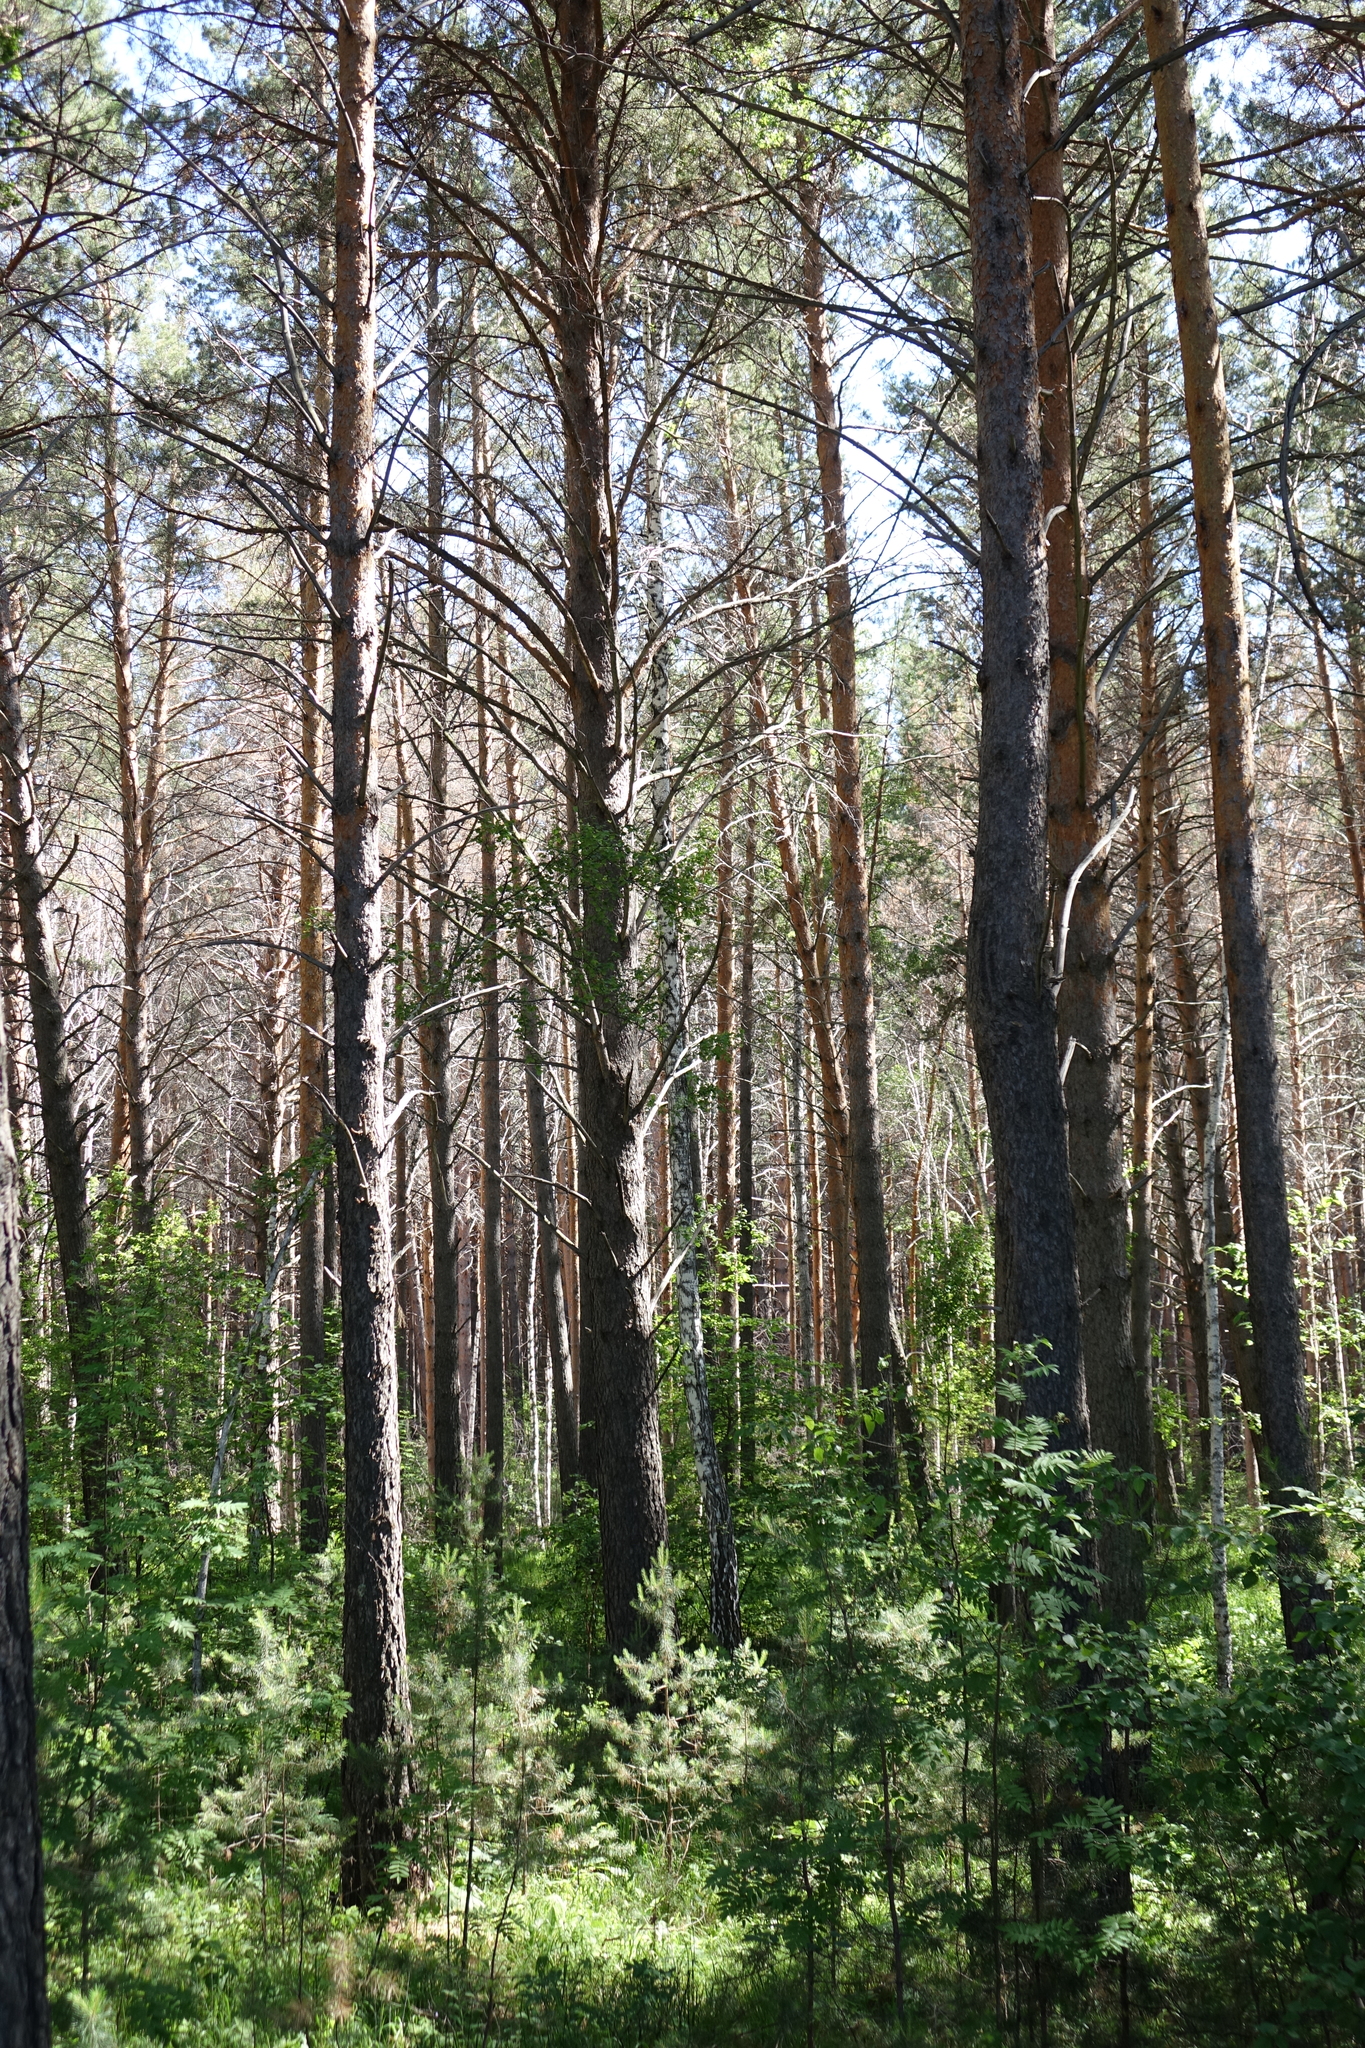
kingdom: Plantae
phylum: Tracheophyta
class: Pinopsida
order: Pinales
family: Pinaceae
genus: Pinus
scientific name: Pinus sylvestris
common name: Scots pine
